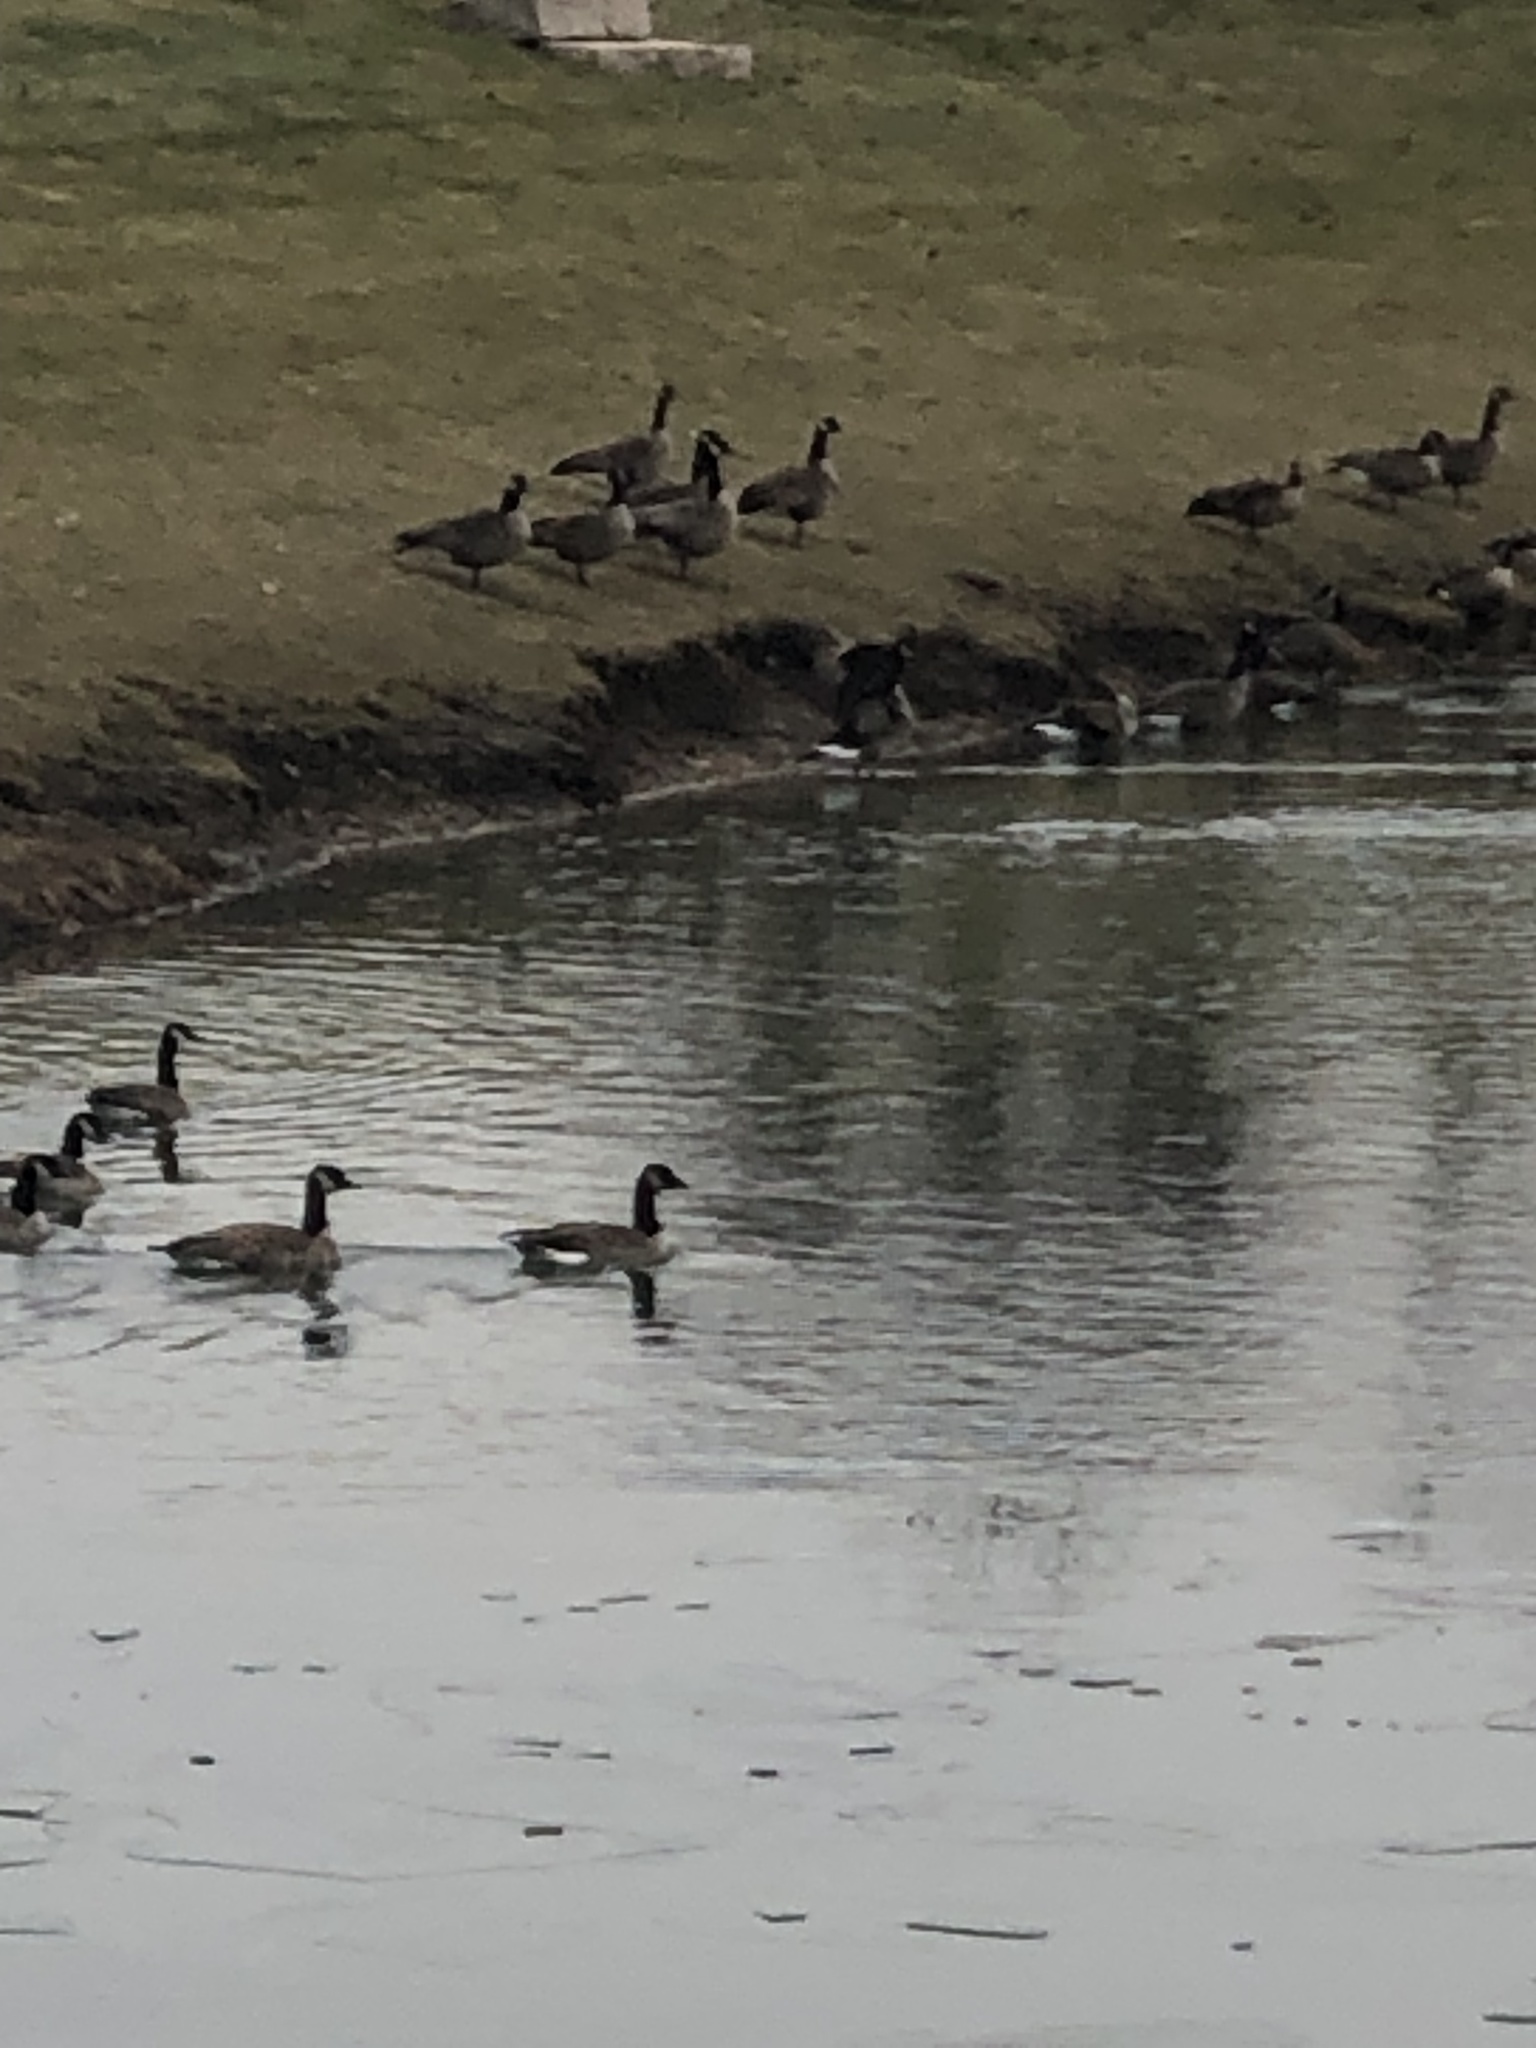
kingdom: Animalia
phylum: Chordata
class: Aves
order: Anseriformes
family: Anatidae
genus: Branta
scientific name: Branta canadensis
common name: Canada goose
